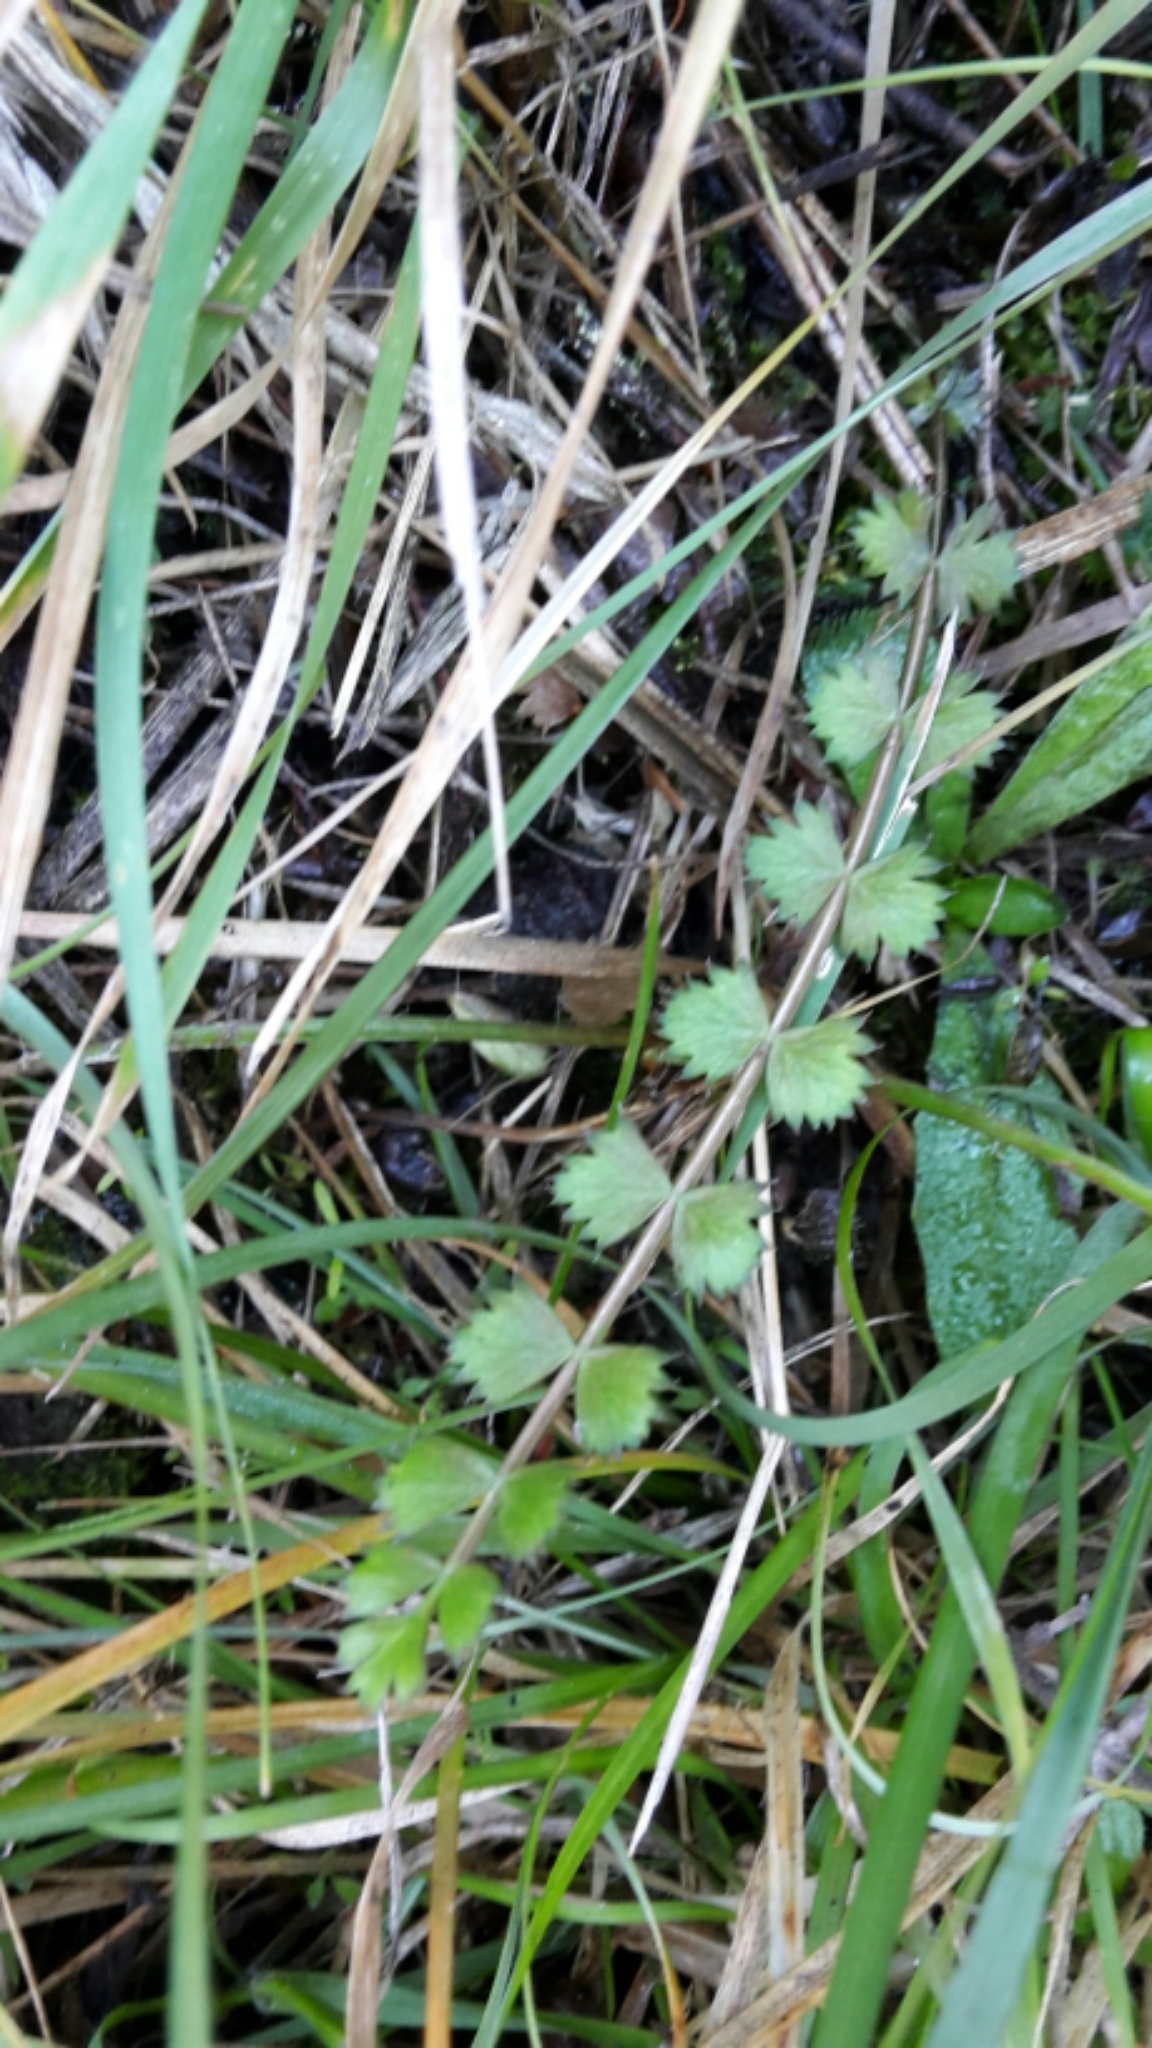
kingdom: Plantae
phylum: Tracheophyta
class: Magnoliopsida
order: Apiales
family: Apiaceae
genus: Anisotome
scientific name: Anisotome aromatica
